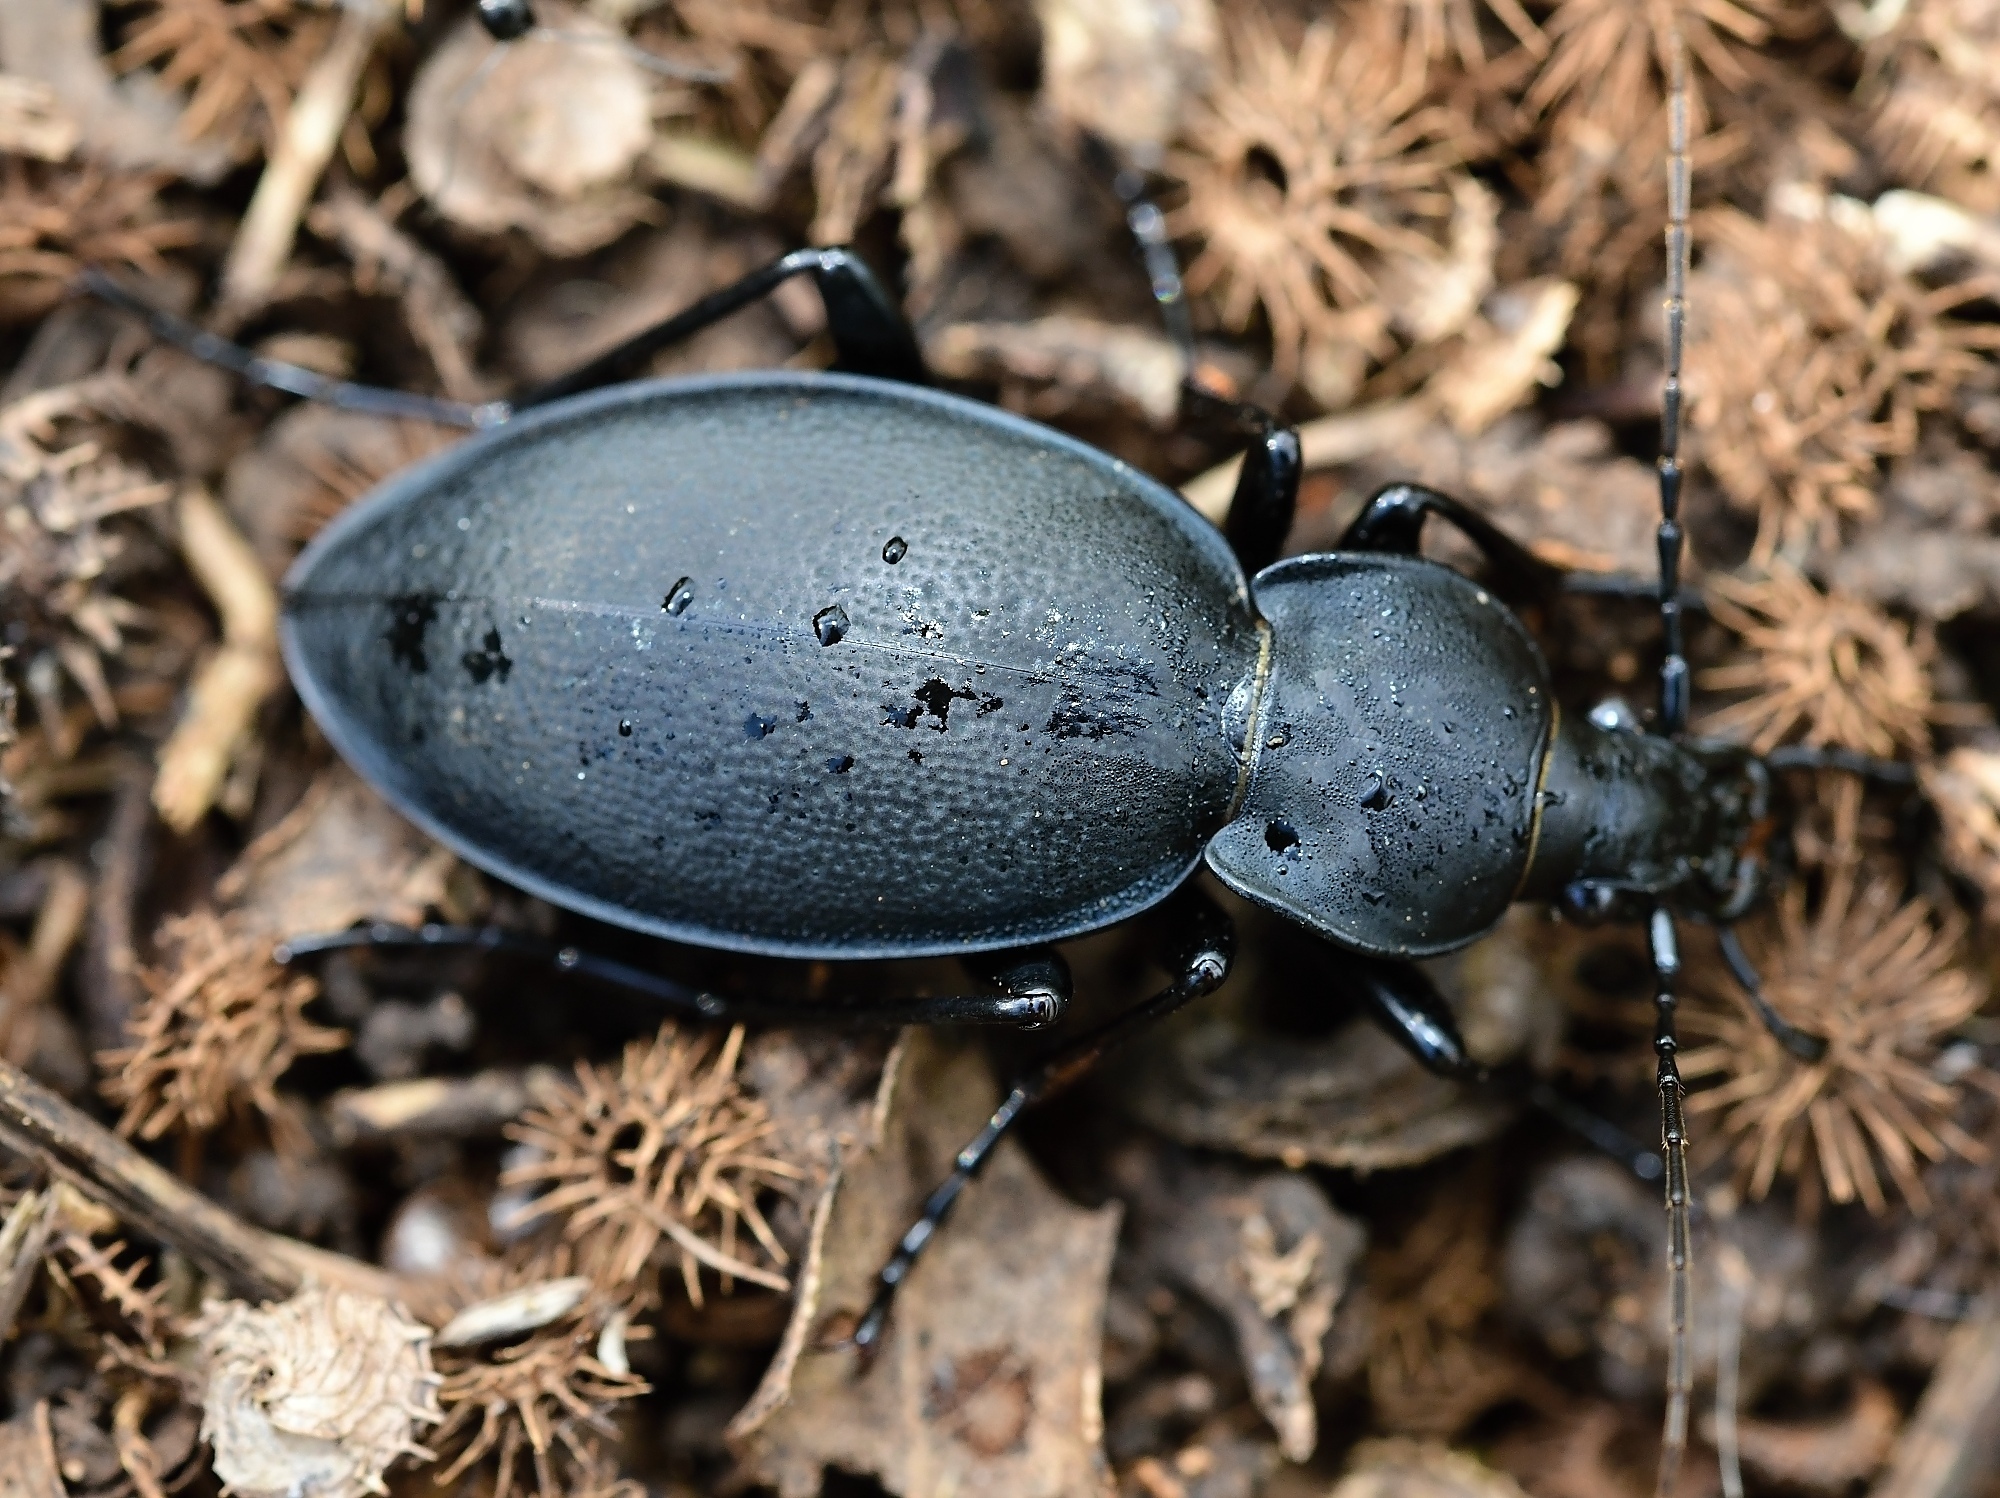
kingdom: Animalia
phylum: Arthropoda
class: Insecta
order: Coleoptera
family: Carabidae
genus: Carabus
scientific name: Carabus coriaceus
